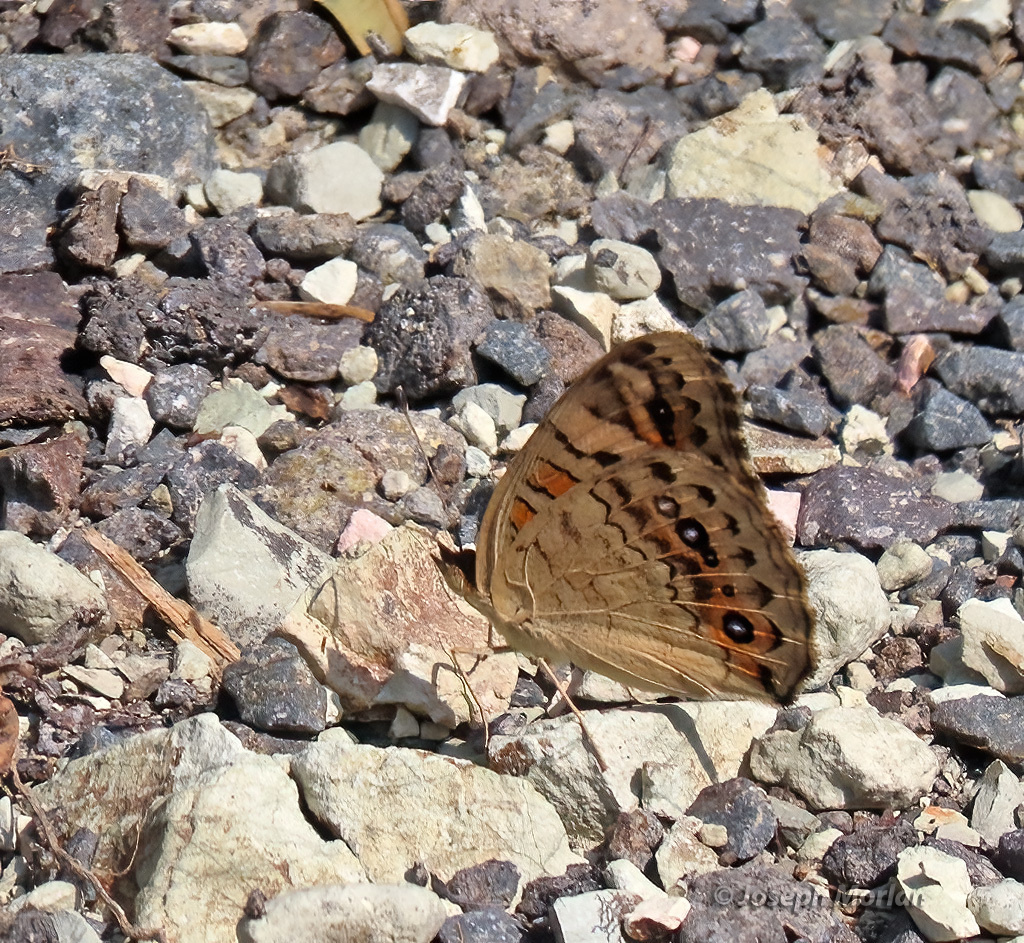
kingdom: Animalia
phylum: Arthropoda
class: Insecta
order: Lepidoptera
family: Nymphalidae
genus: Junonia
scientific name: Junonia orithya
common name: Blue pansy
